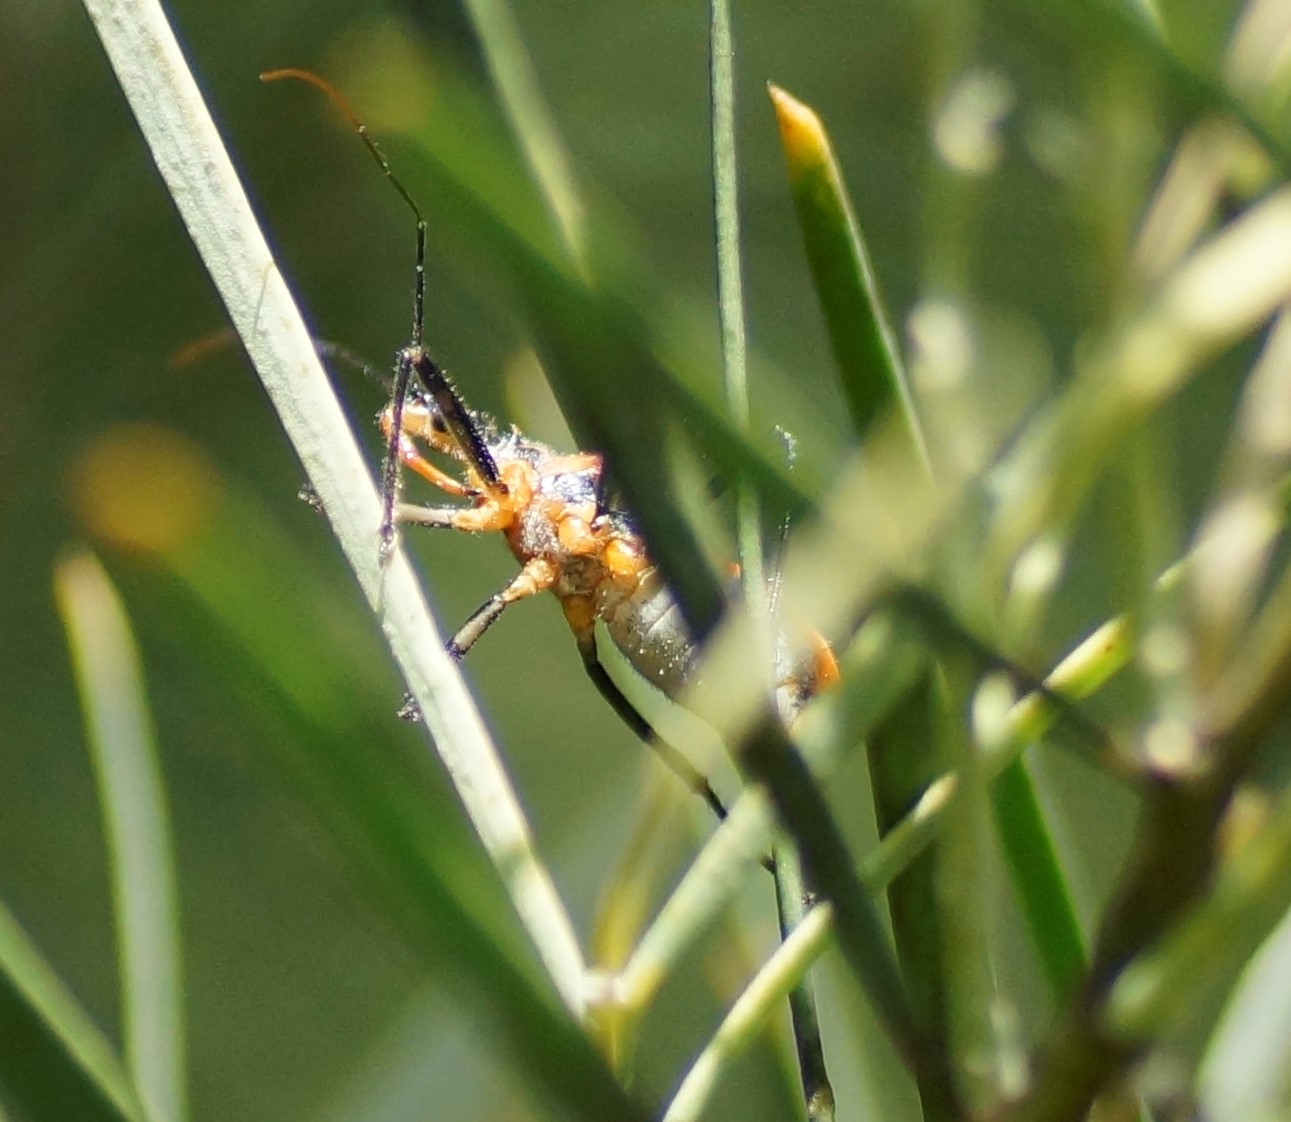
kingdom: Animalia
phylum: Arthropoda
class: Insecta
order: Hemiptera
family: Reduviidae
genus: Gminatus
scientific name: Gminatus australis
